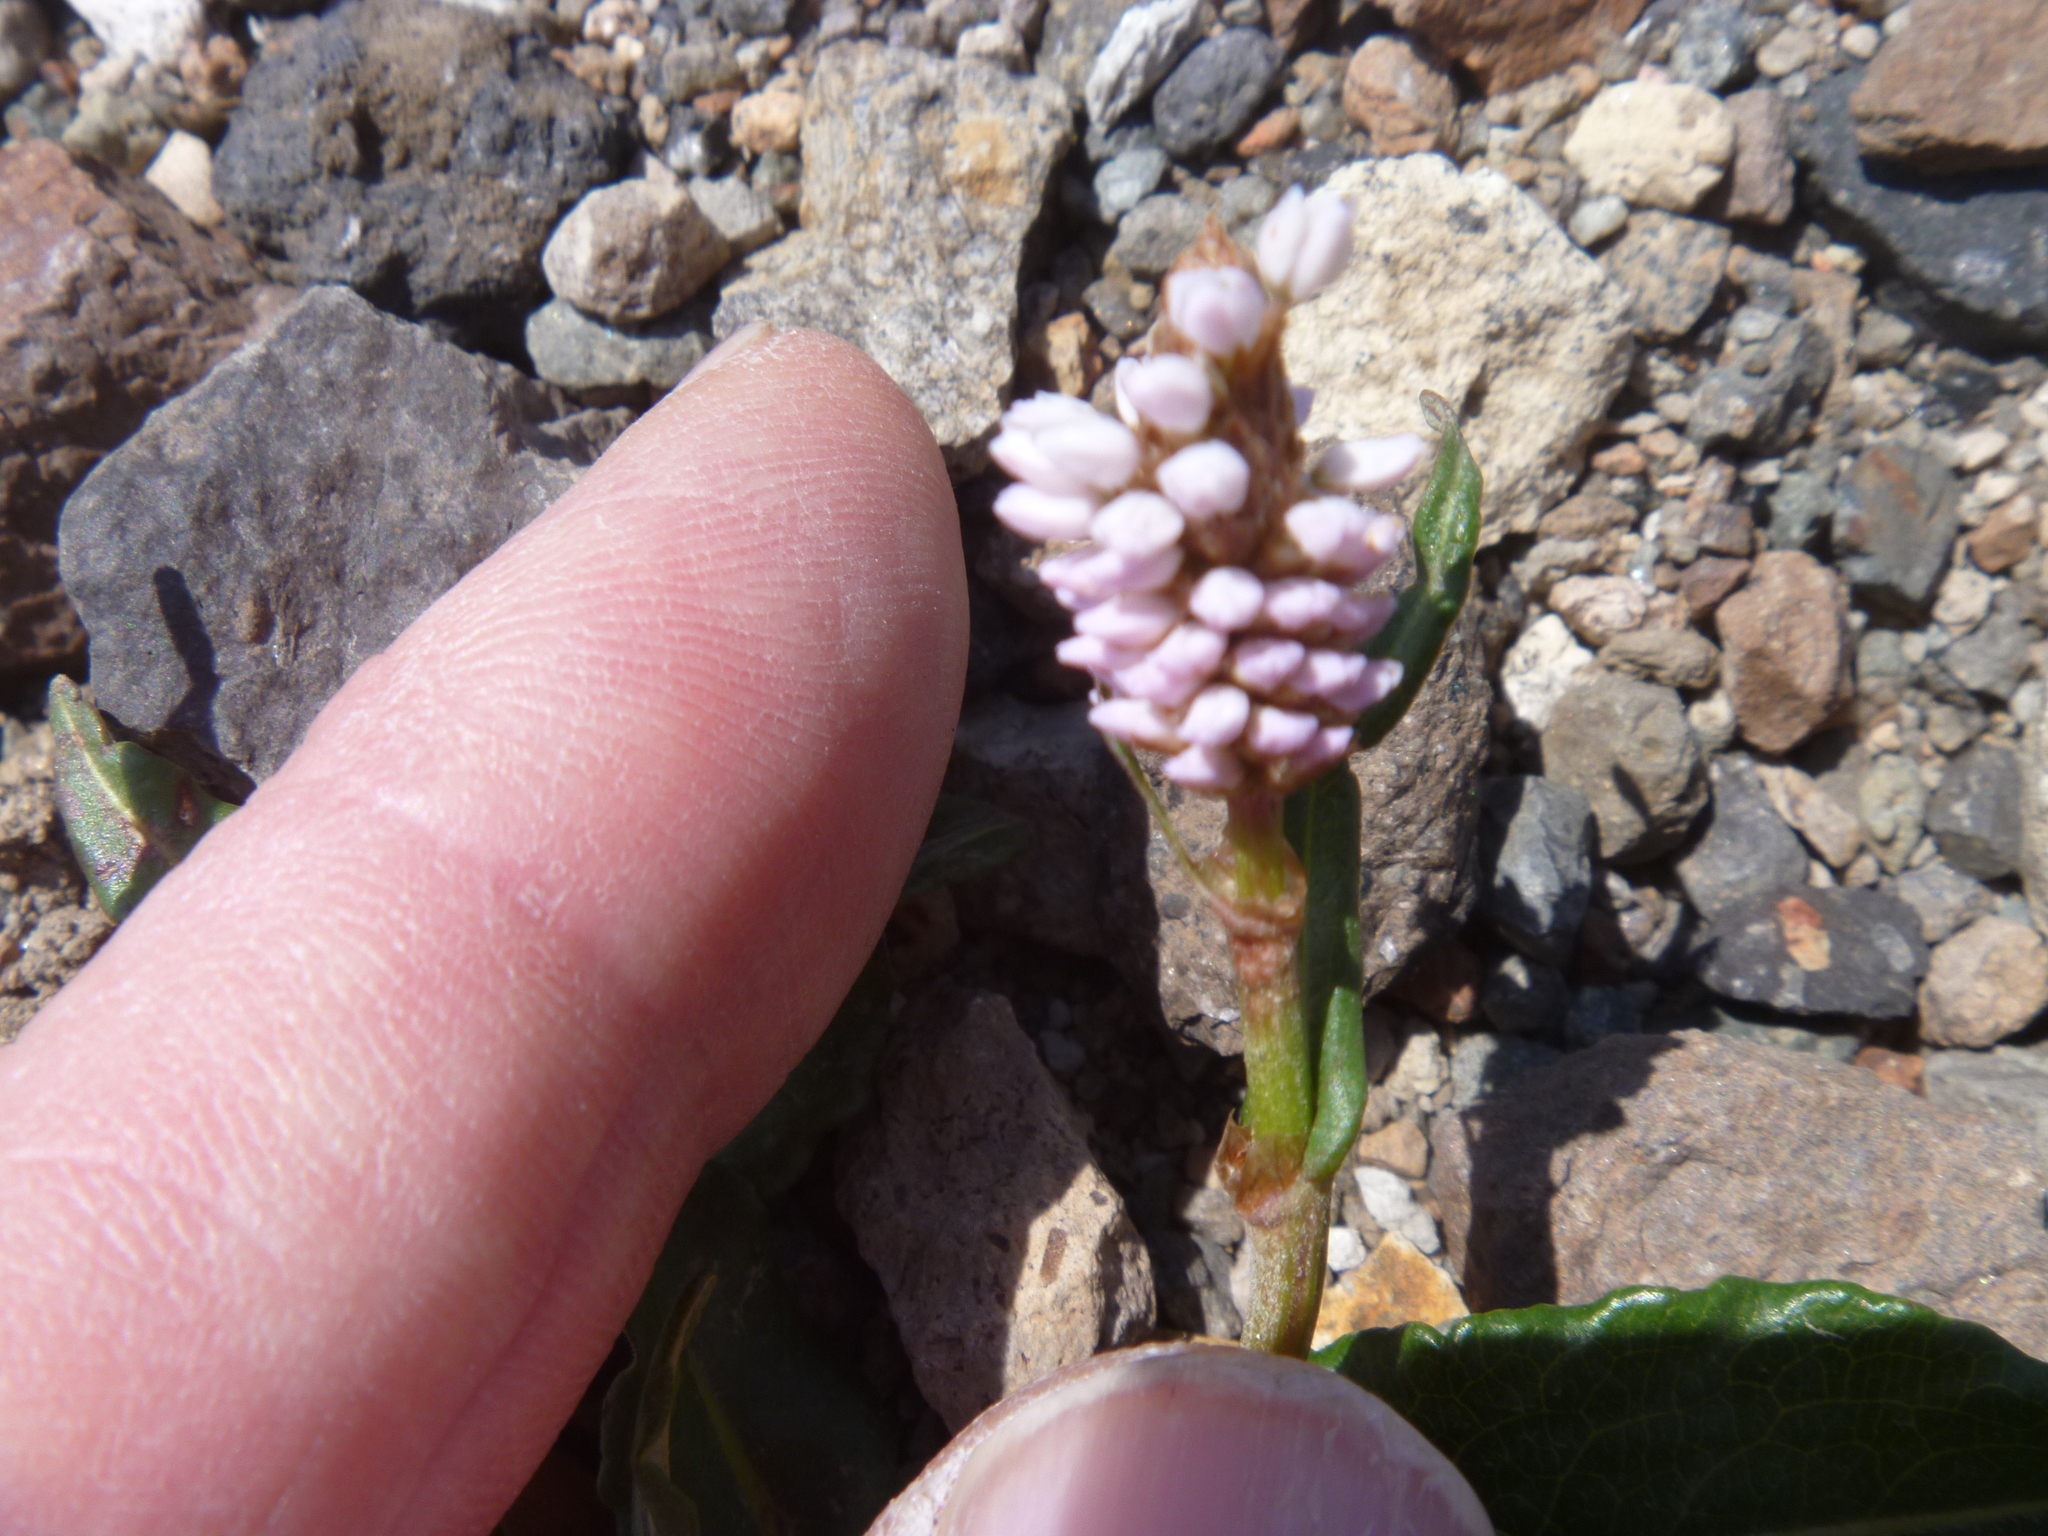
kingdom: Plantae
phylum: Tracheophyta
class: Magnoliopsida
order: Caryophyllales
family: Polygonaceae
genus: Bistorta
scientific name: Bistorta officinalis
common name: Common bistort
